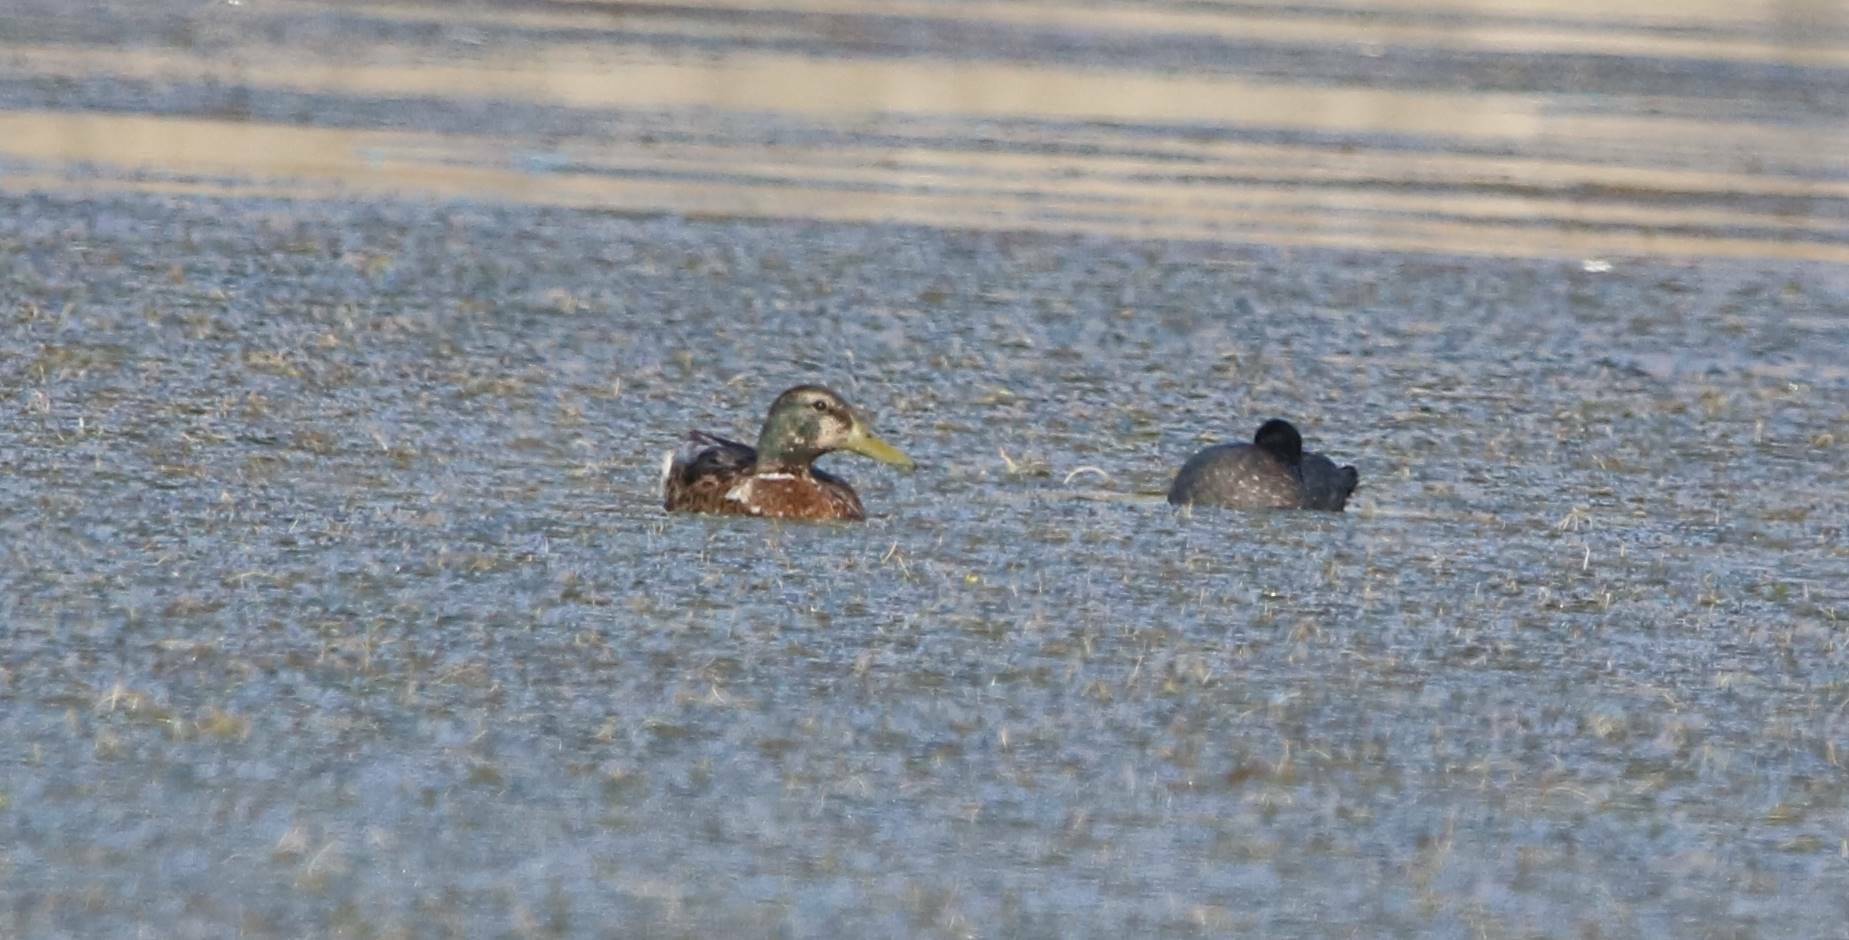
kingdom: Animalia
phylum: Chordata
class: Aves
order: Anseriformes
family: Anatidae
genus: Anas
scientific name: Anas platyrhynchos
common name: Mallard
